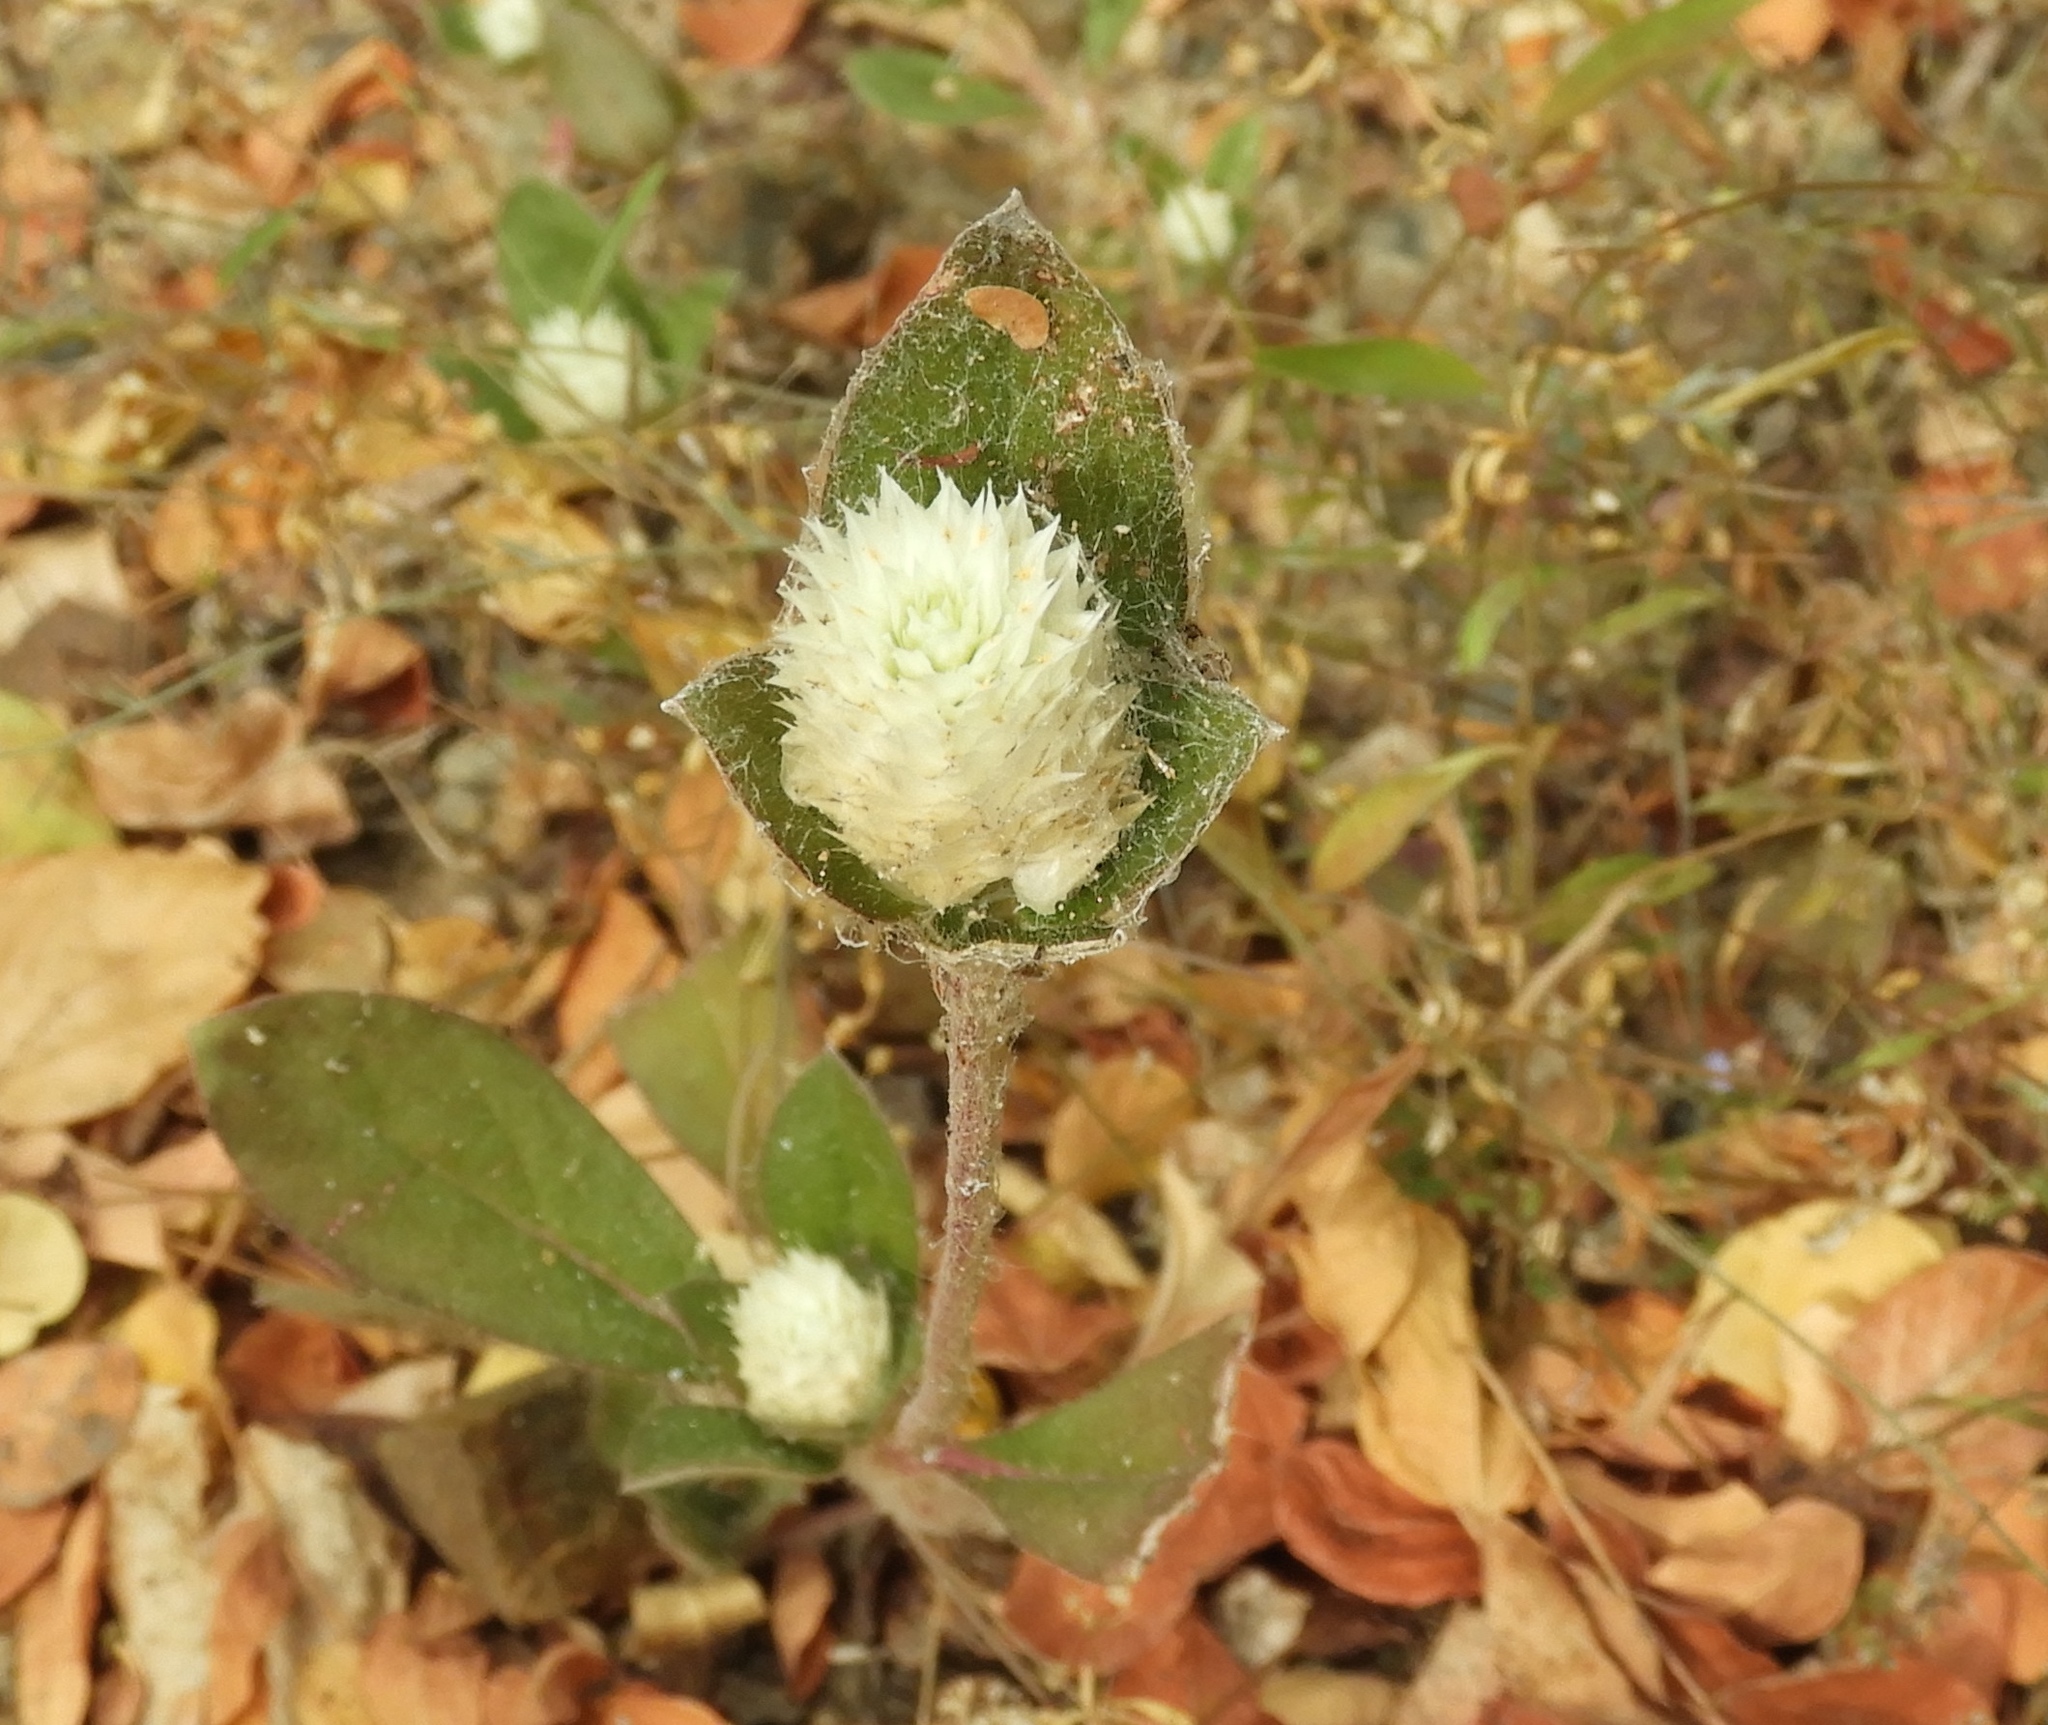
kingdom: Plantae
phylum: Tracheophyta
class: Magnoliopsida
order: Caryophyllales
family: Amaranthaceae
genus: Gomphrena
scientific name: Gomphrena
